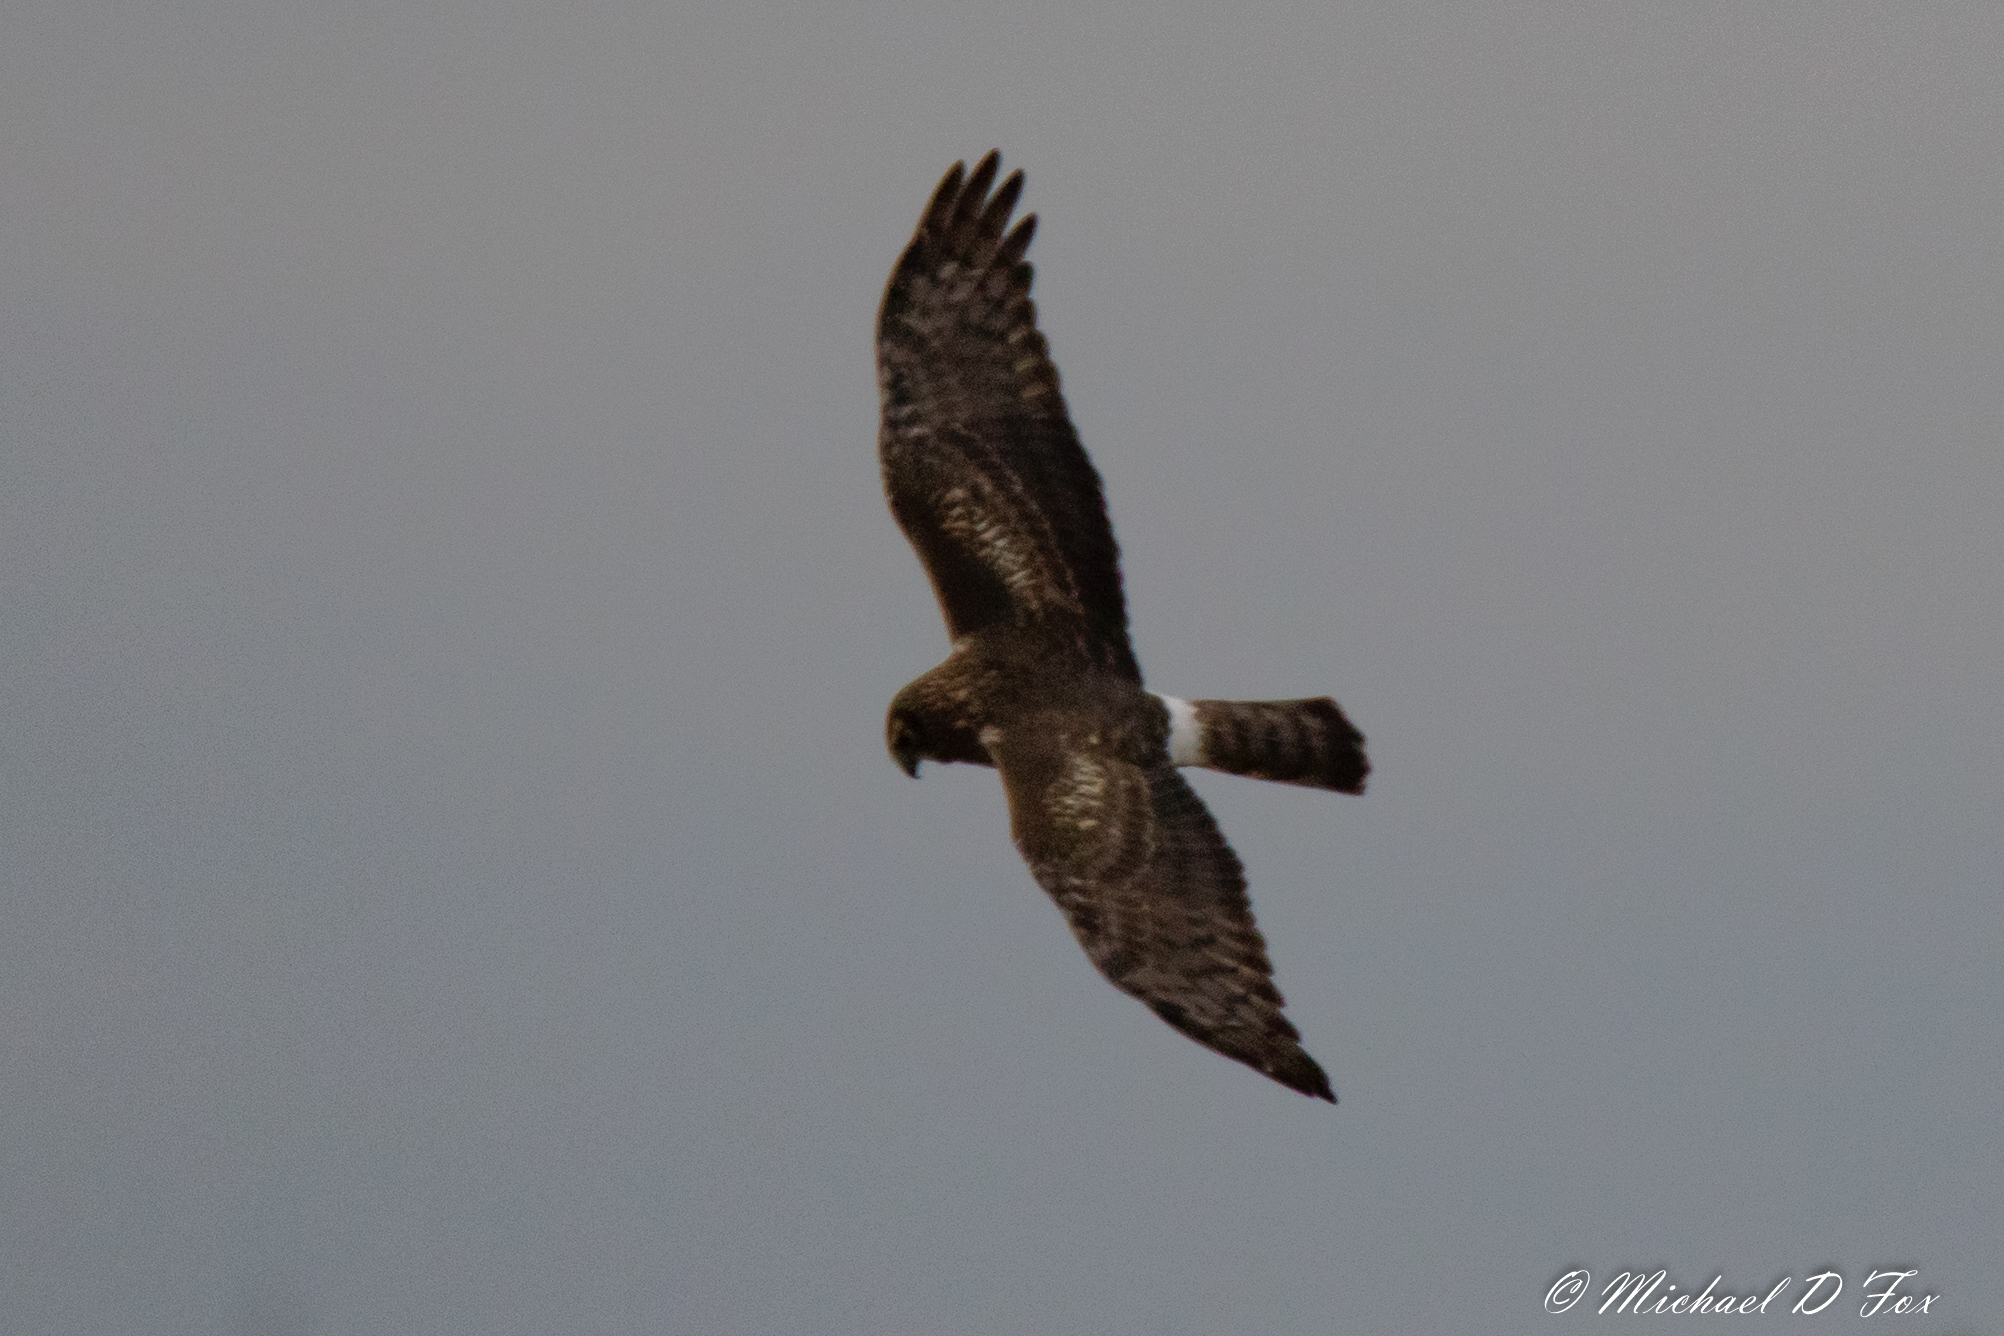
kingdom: Animalia
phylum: Chordata
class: Aves
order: Accipitriformes
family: Accipitridae
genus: Circus
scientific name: Circus cyaneus
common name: Hen harrier
